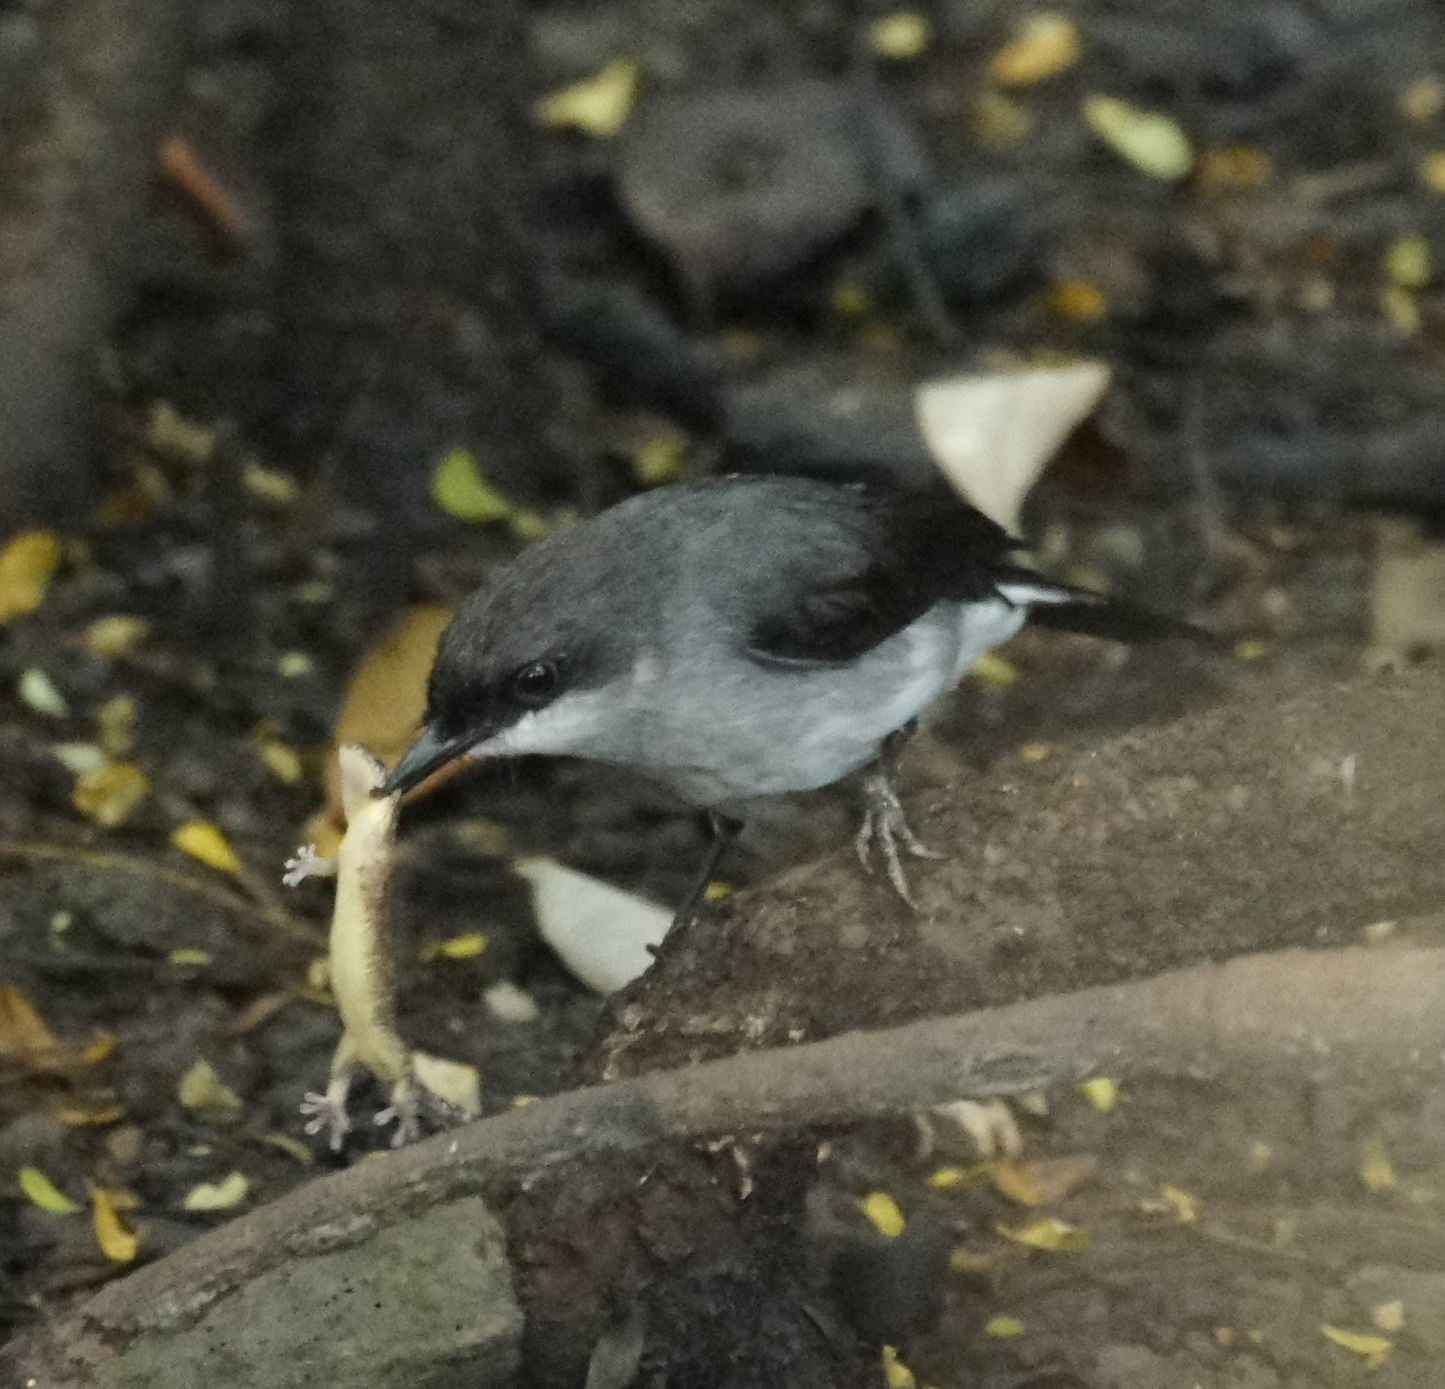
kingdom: Animalia
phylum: Chordata
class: Aves
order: Passeriformes
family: Petroicidae
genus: Melanodryas
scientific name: Melanodryas
